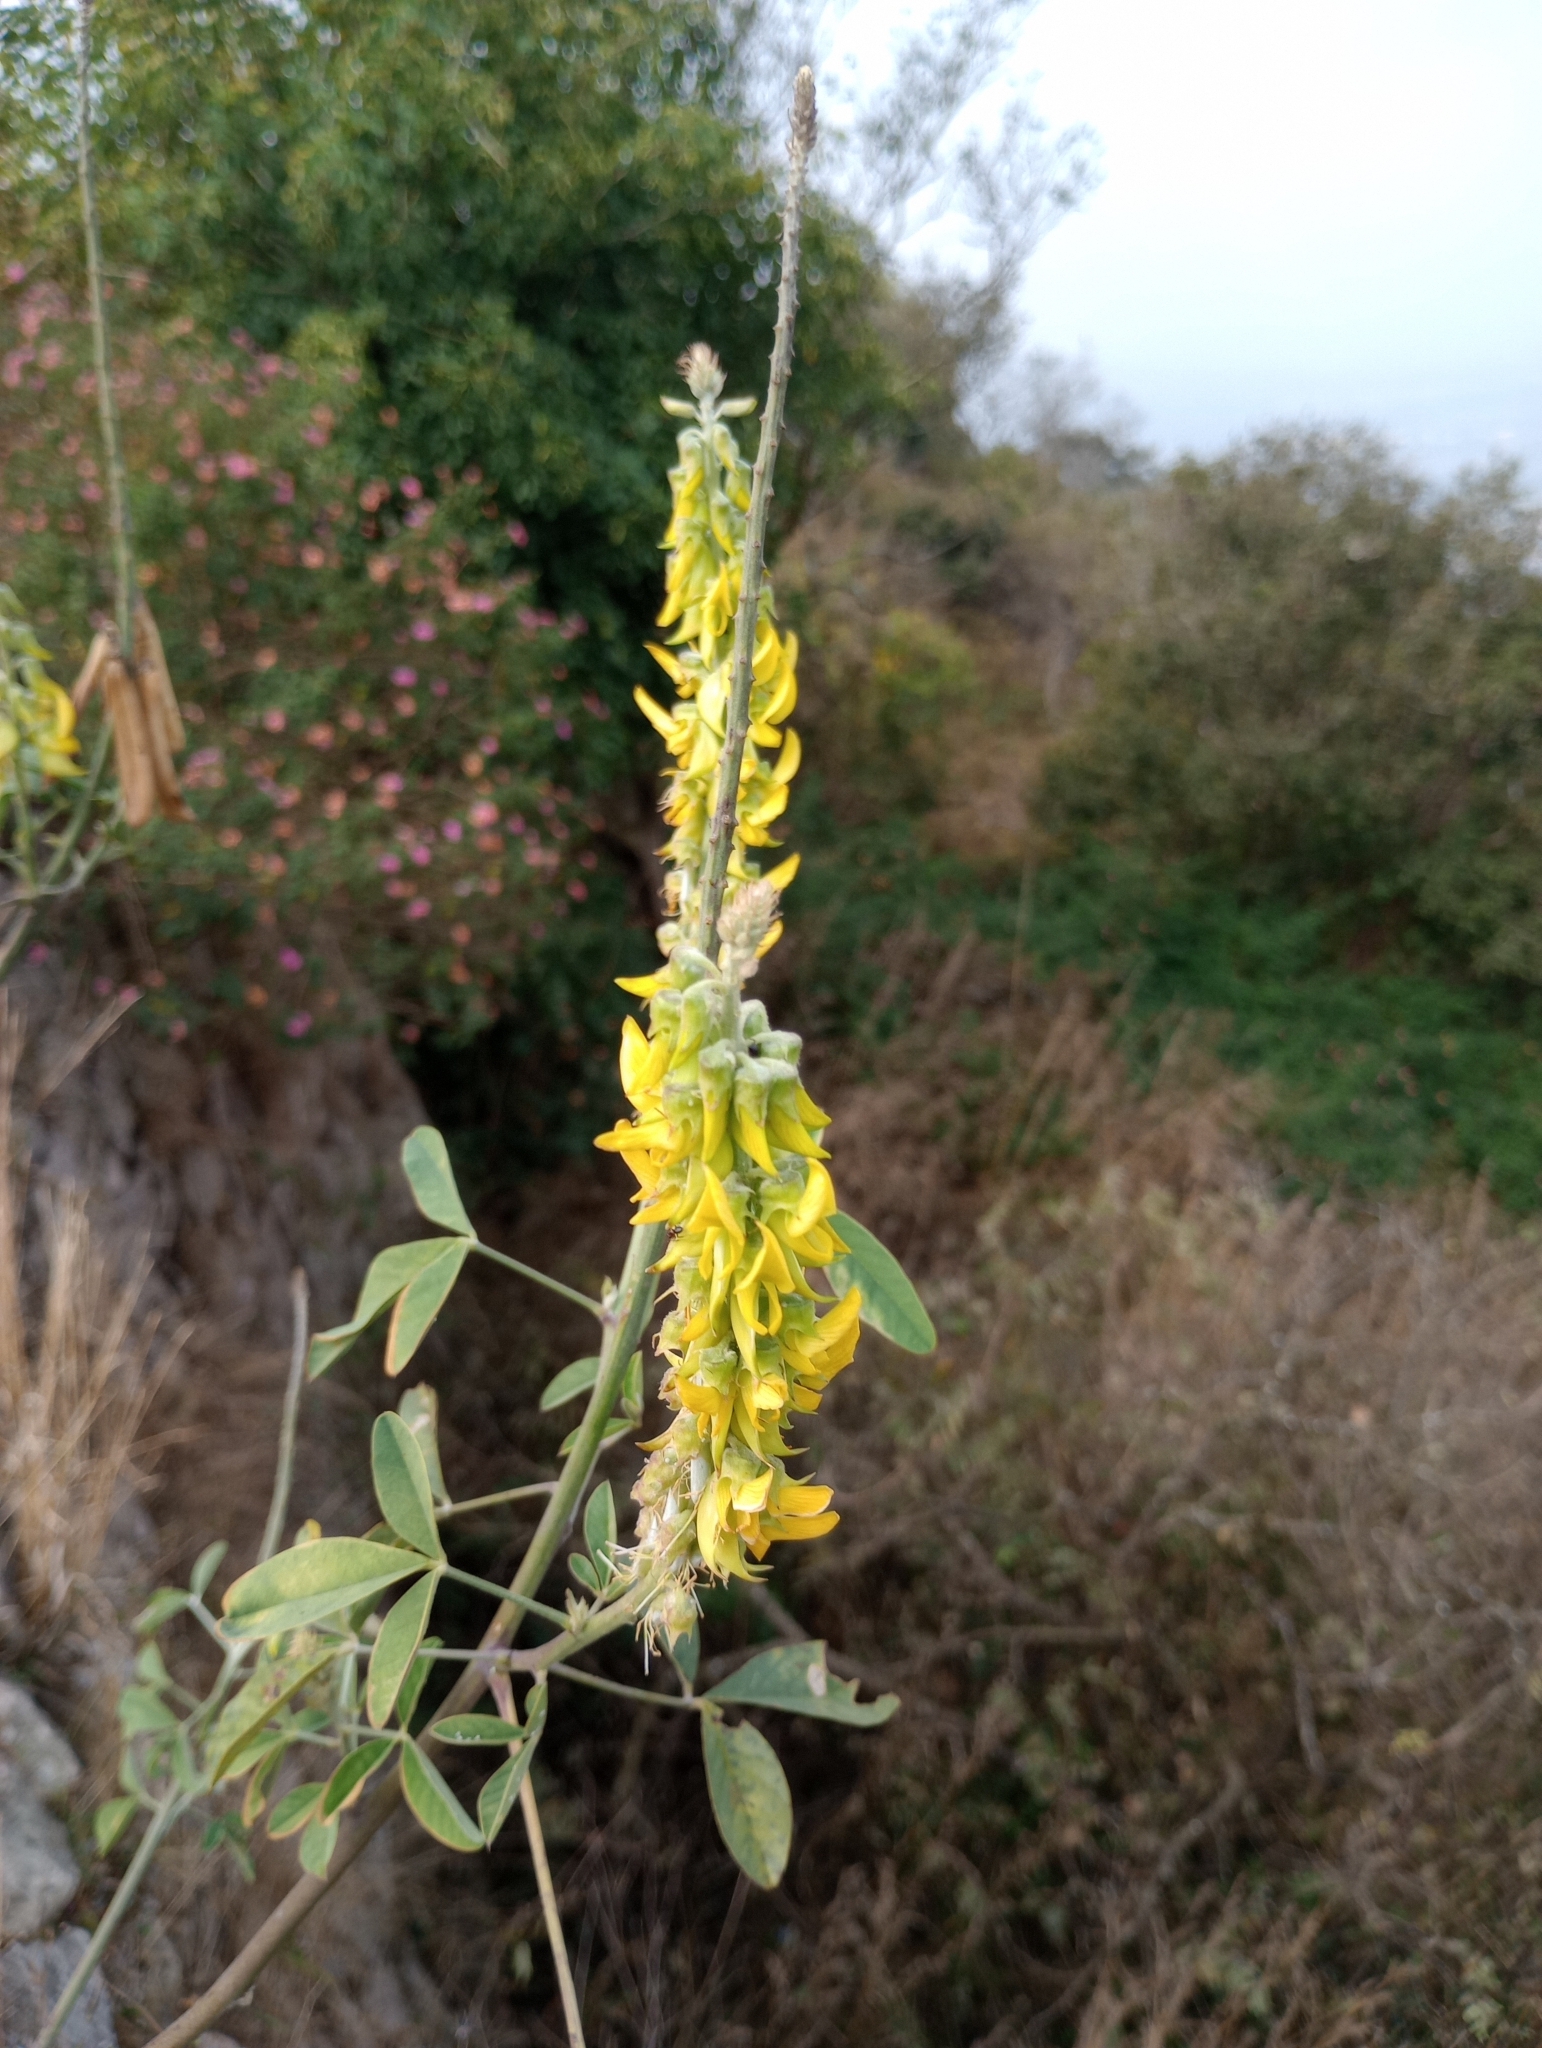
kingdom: Plantae
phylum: Tracheophyta
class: Magnoliopsida
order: Fabales
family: Fabaceae
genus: Crotalaria
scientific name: Crotalaria pallida
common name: Smooth rattlebox
